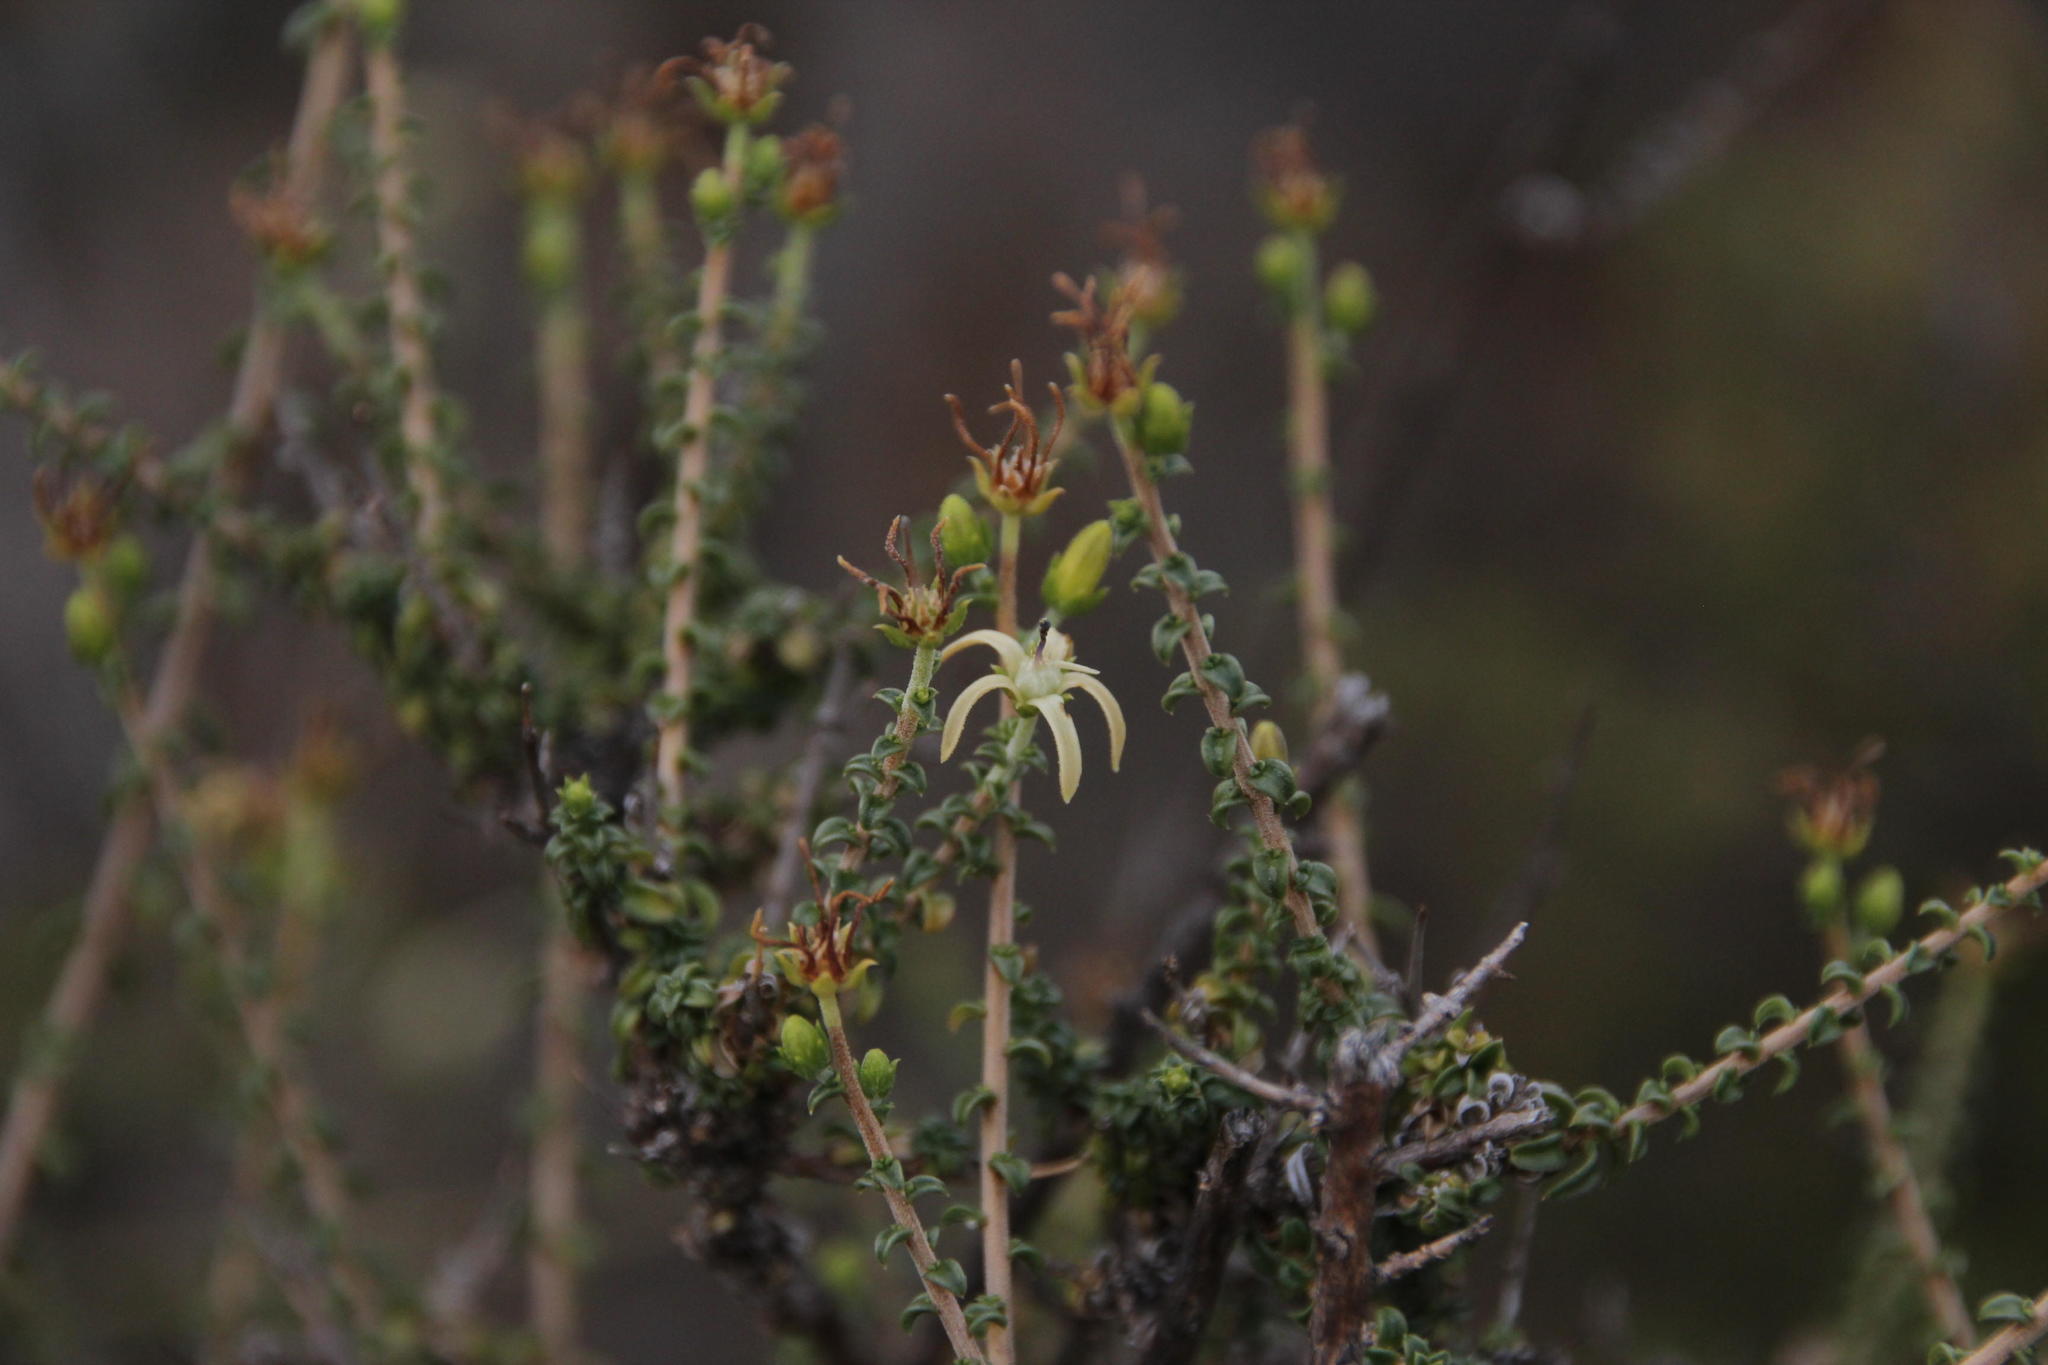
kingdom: Plantae
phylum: Tracheophyta
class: Magnoliopsida
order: Asterales
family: Campanulaceae
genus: Wahlenbergia
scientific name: Wahlenbergia nodosa
